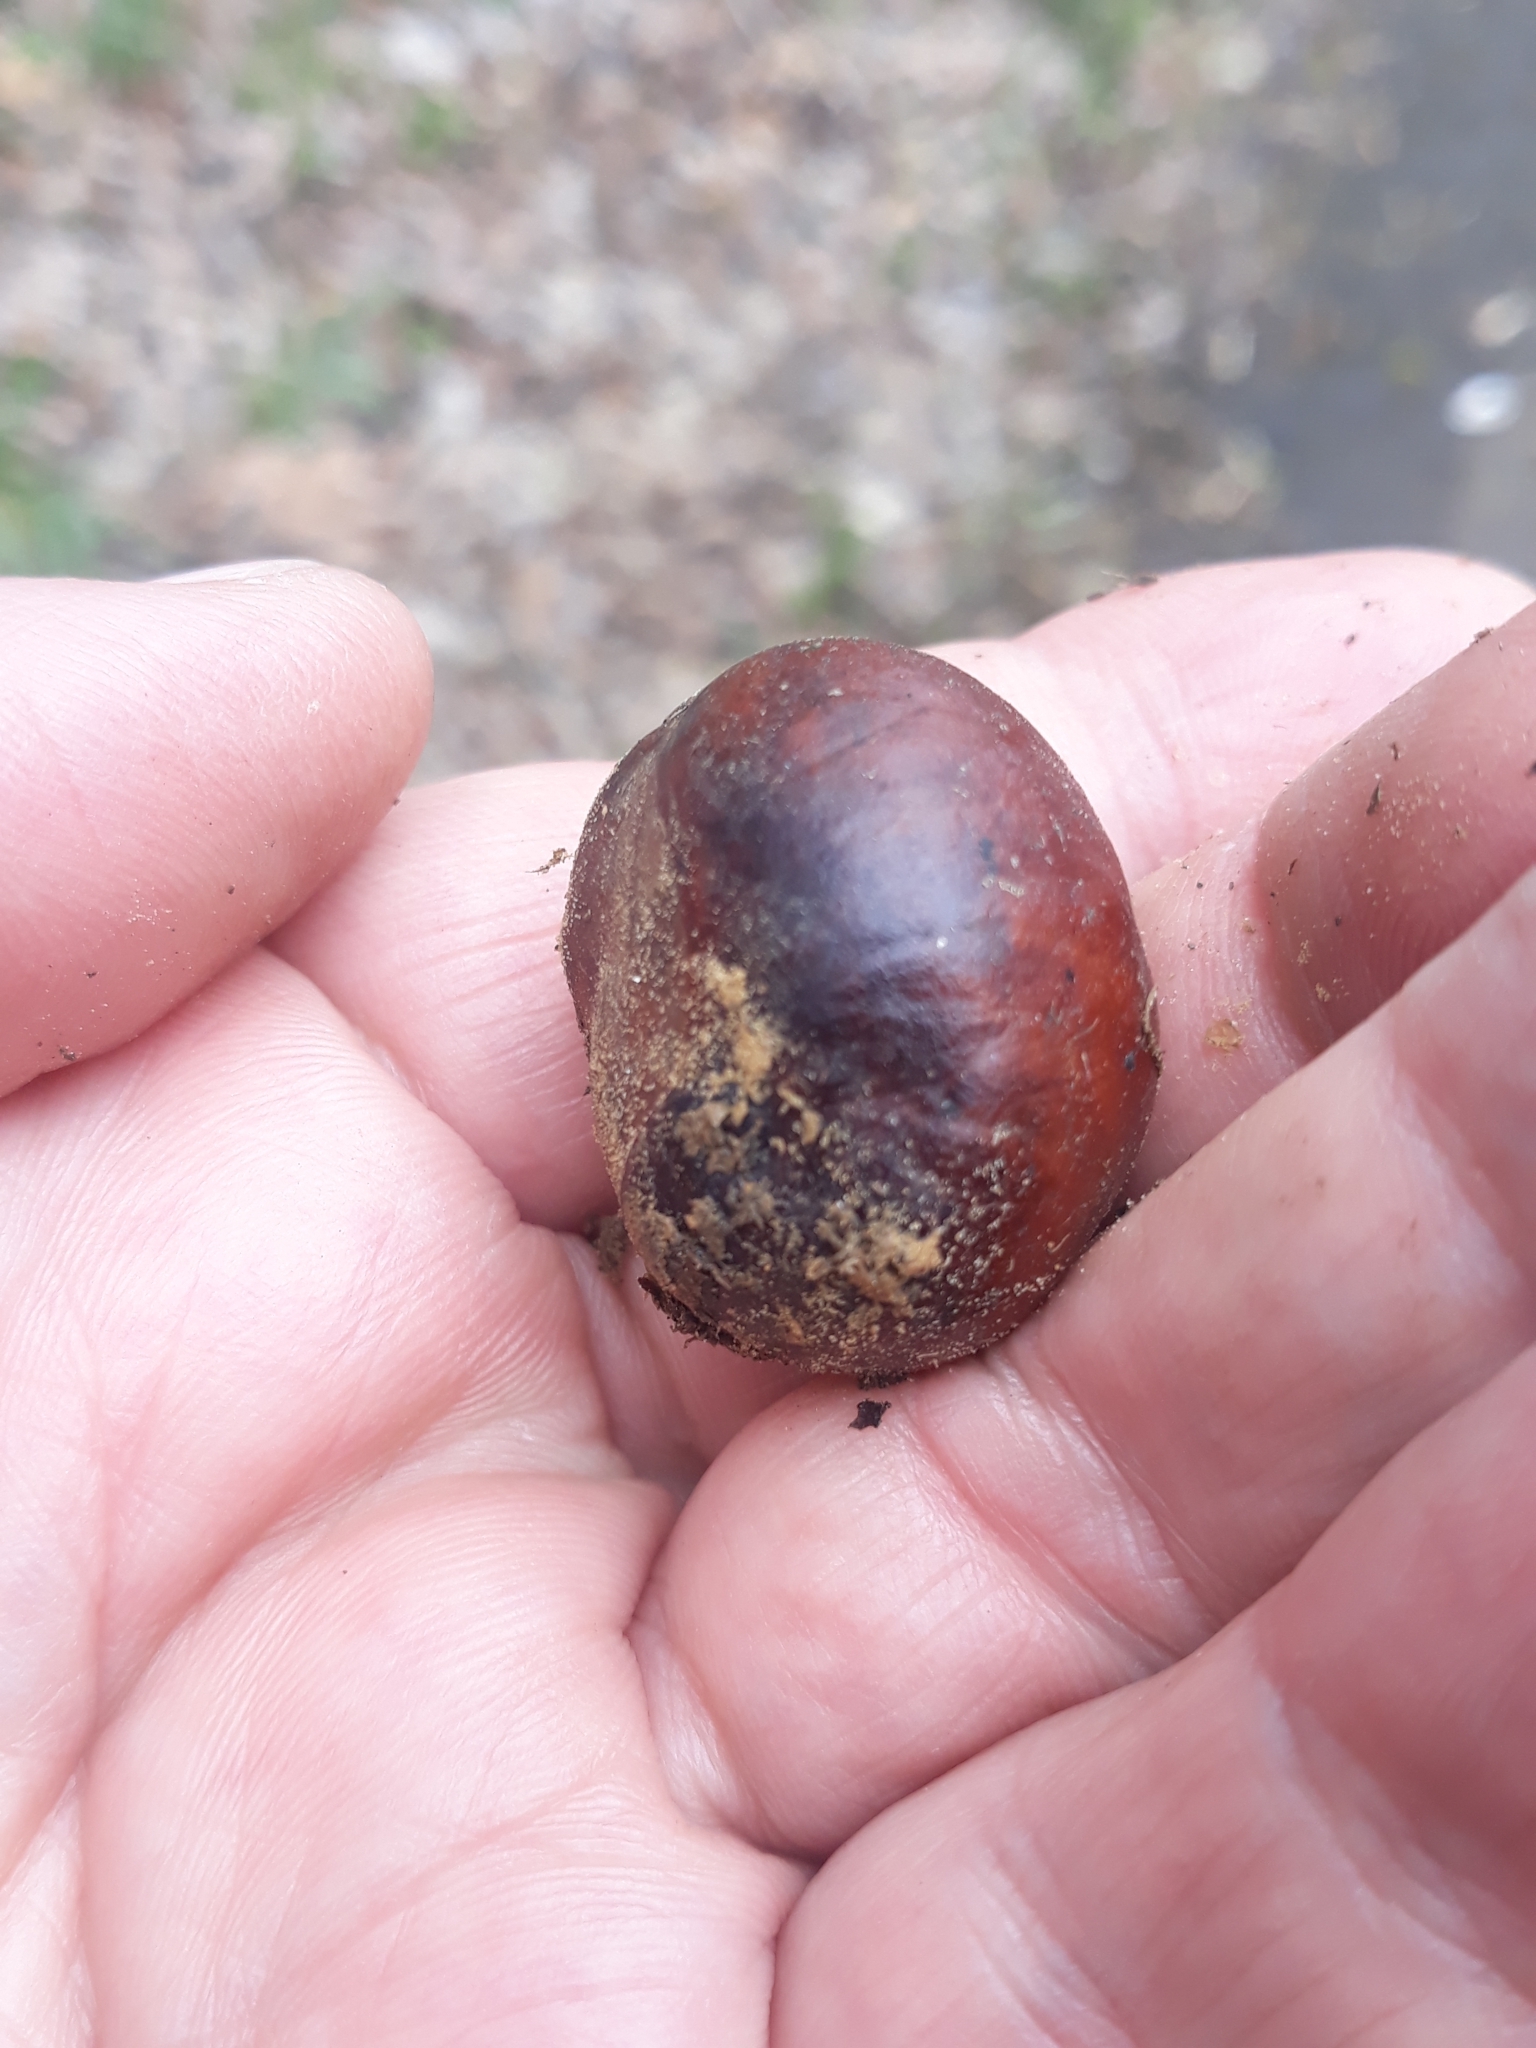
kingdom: Plantae
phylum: Tracheophyta
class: Magnoliopsida
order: Sapindales
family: Sapindaceae
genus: Aesculus
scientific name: Aesculus hippocastanum
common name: Horse-chestnut
